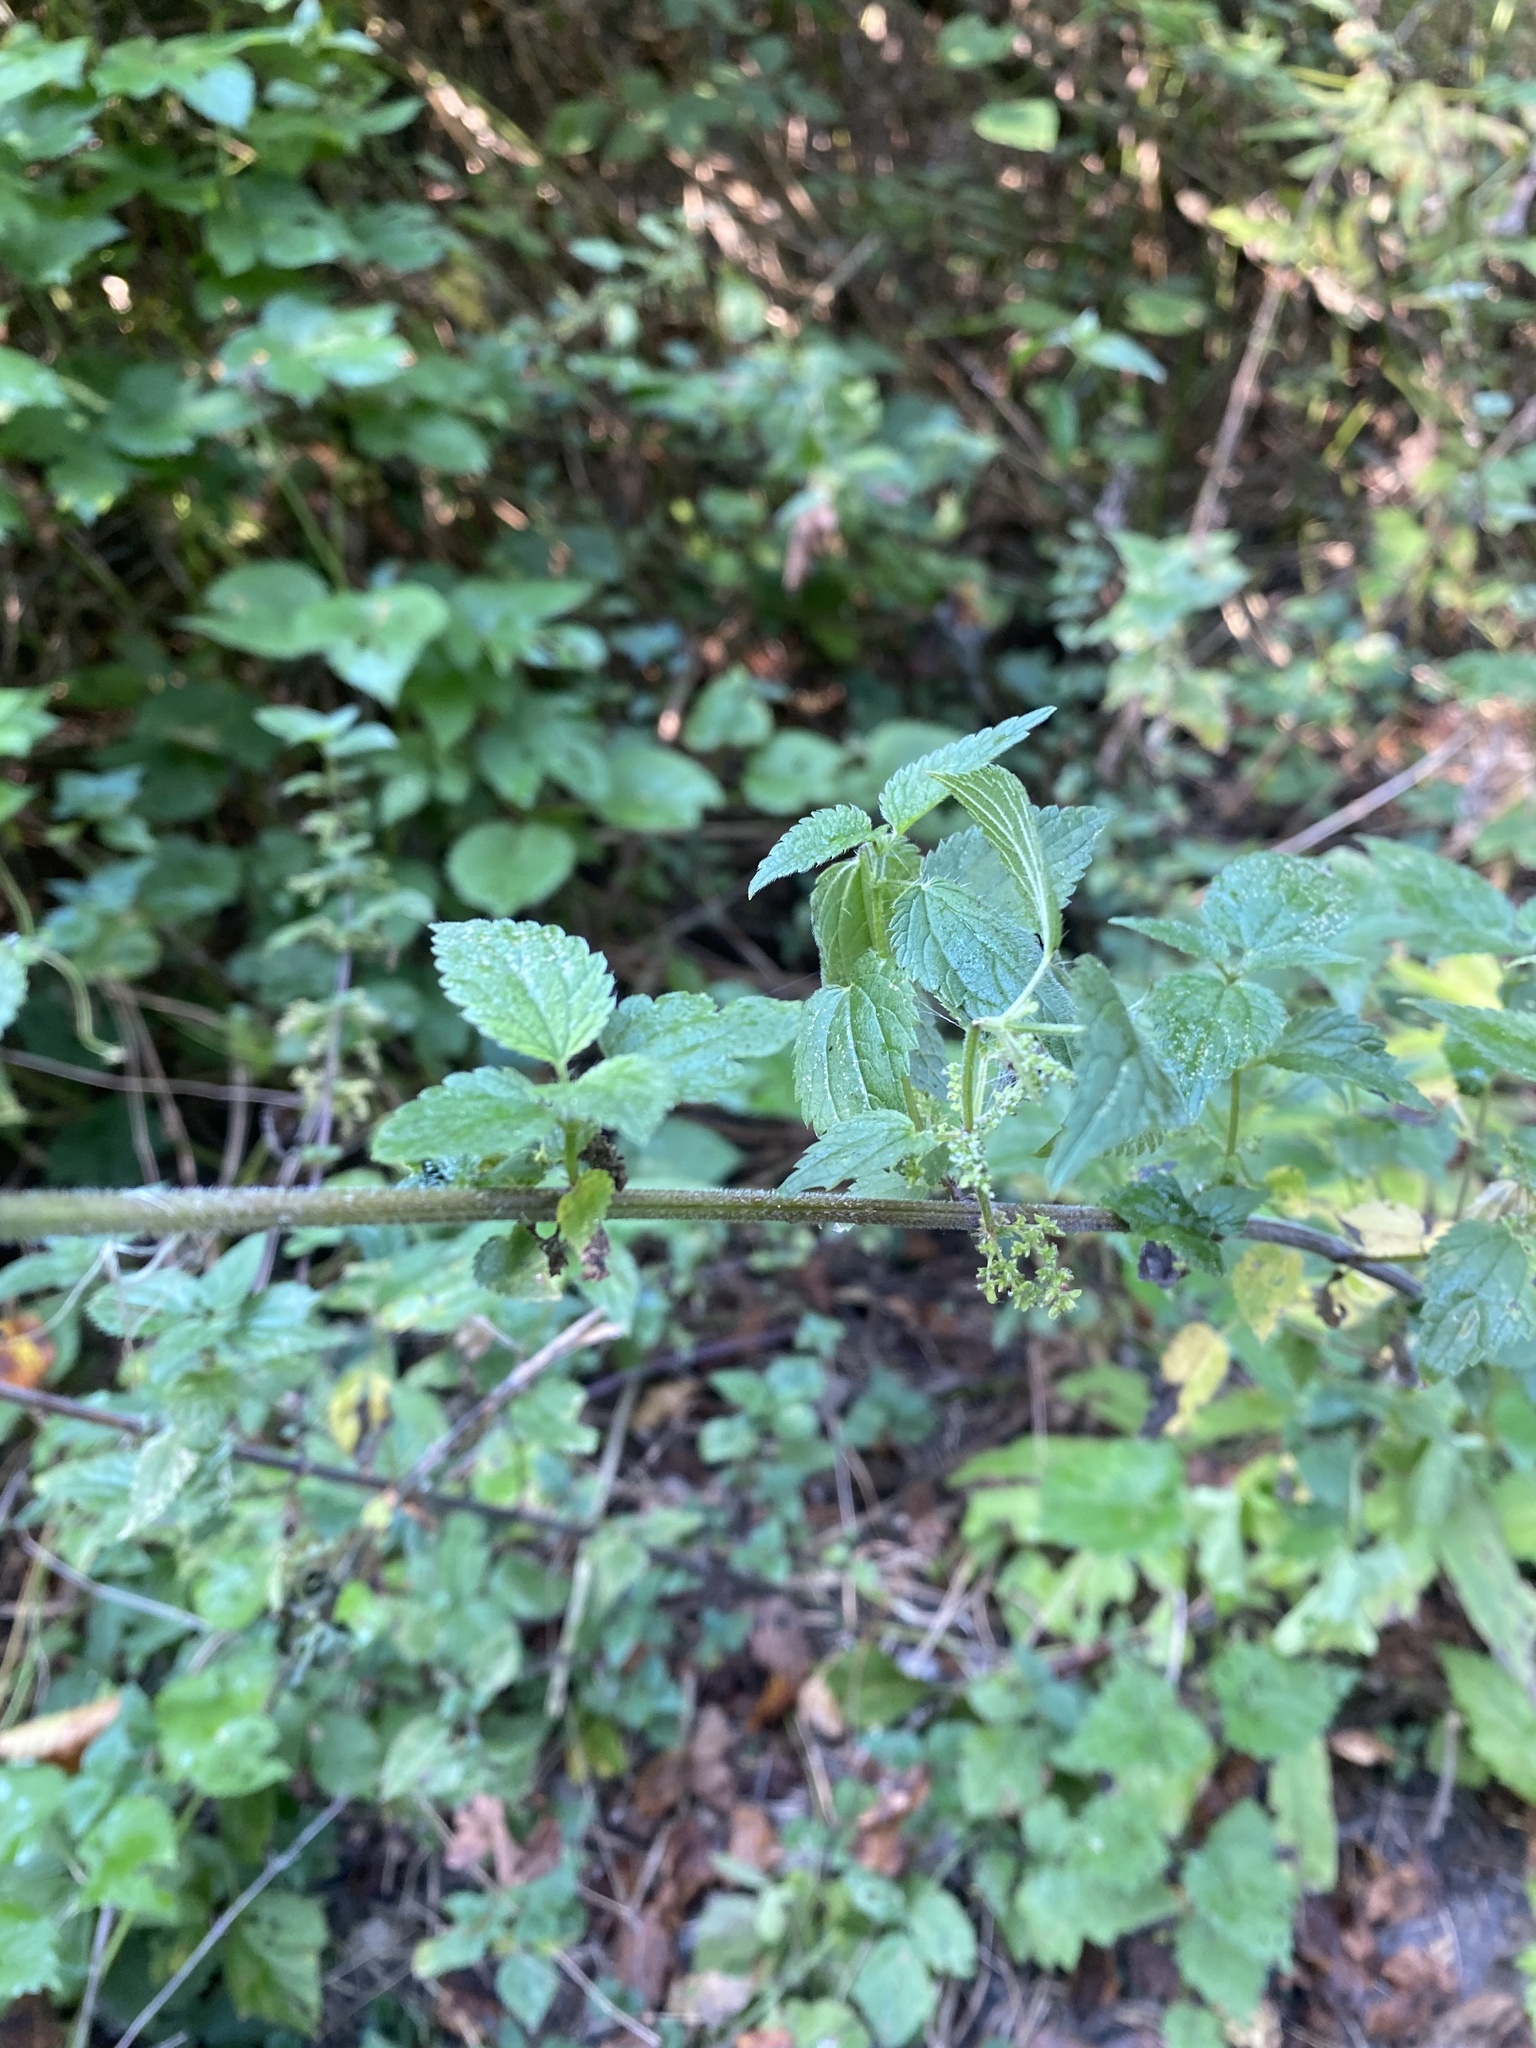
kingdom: Plantae
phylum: Tracheophyta
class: Magnoliopsida
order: Rosales
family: Urticaceae
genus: Urtica
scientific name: Urtica dioica
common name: Common nettle
